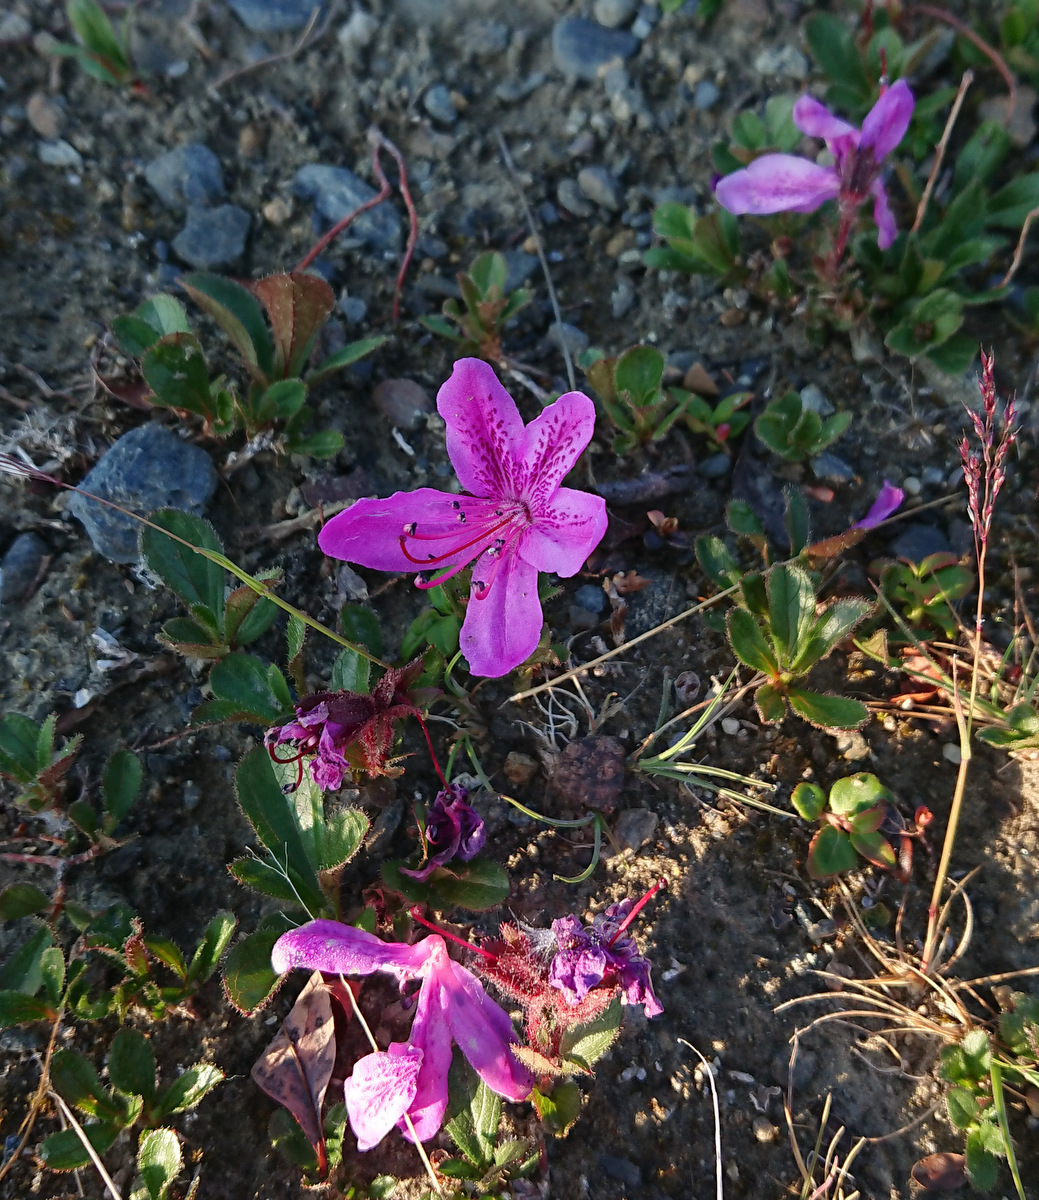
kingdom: Plantae
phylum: Tracheophyta
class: Magnoliopsida
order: Ericales
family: Ericaceae
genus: Rhododendron
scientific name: Rhododendron glandulosum
